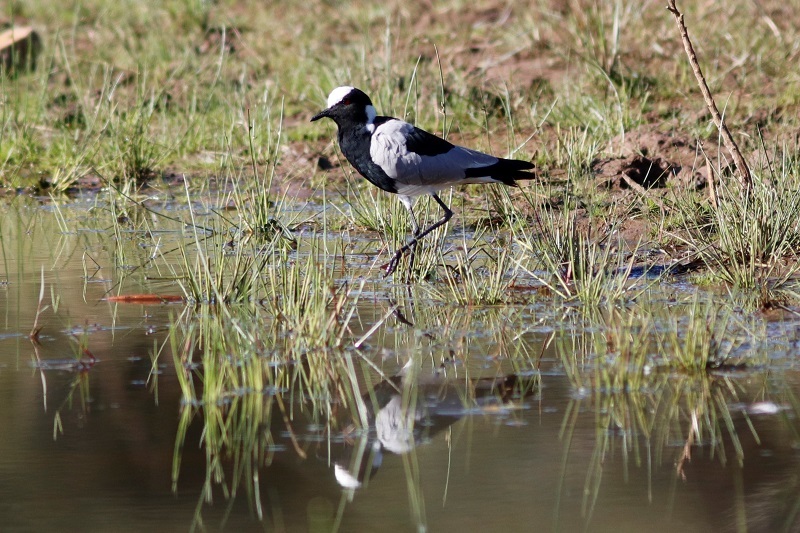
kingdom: Animalia
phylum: Chordata
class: Aves
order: Charadriiformes
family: Charadriidae
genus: Vanellus
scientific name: Vanellus armatus
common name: Blacksmith lapwing
